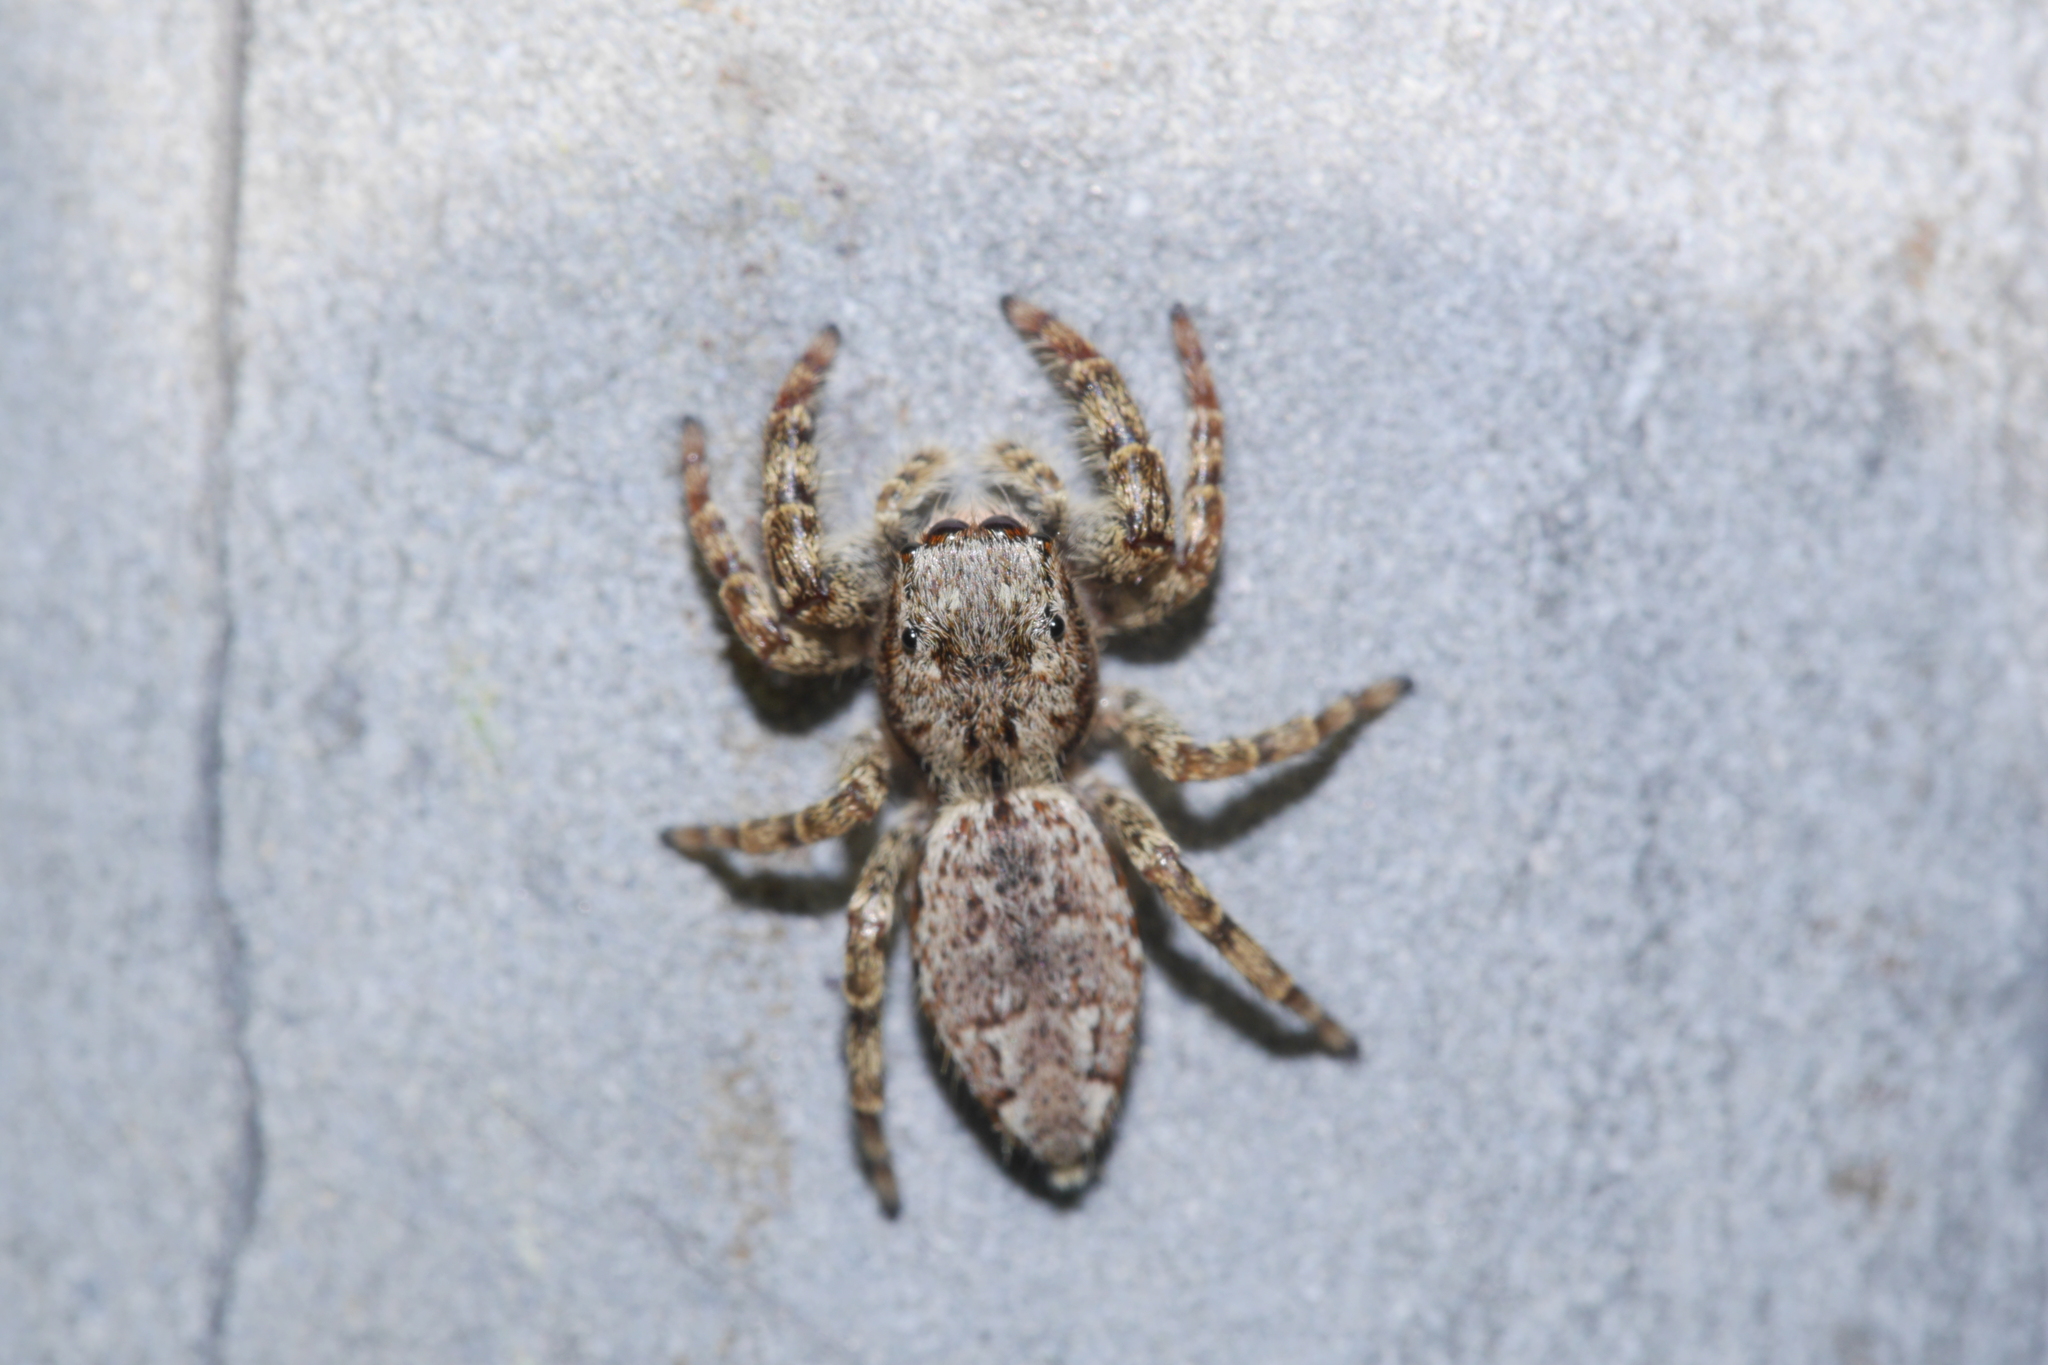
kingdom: Animalia
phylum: Arthropoda
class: Arachnida
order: Araneae
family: Salticidae
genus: Marpissa
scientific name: Marpissa muscosa
